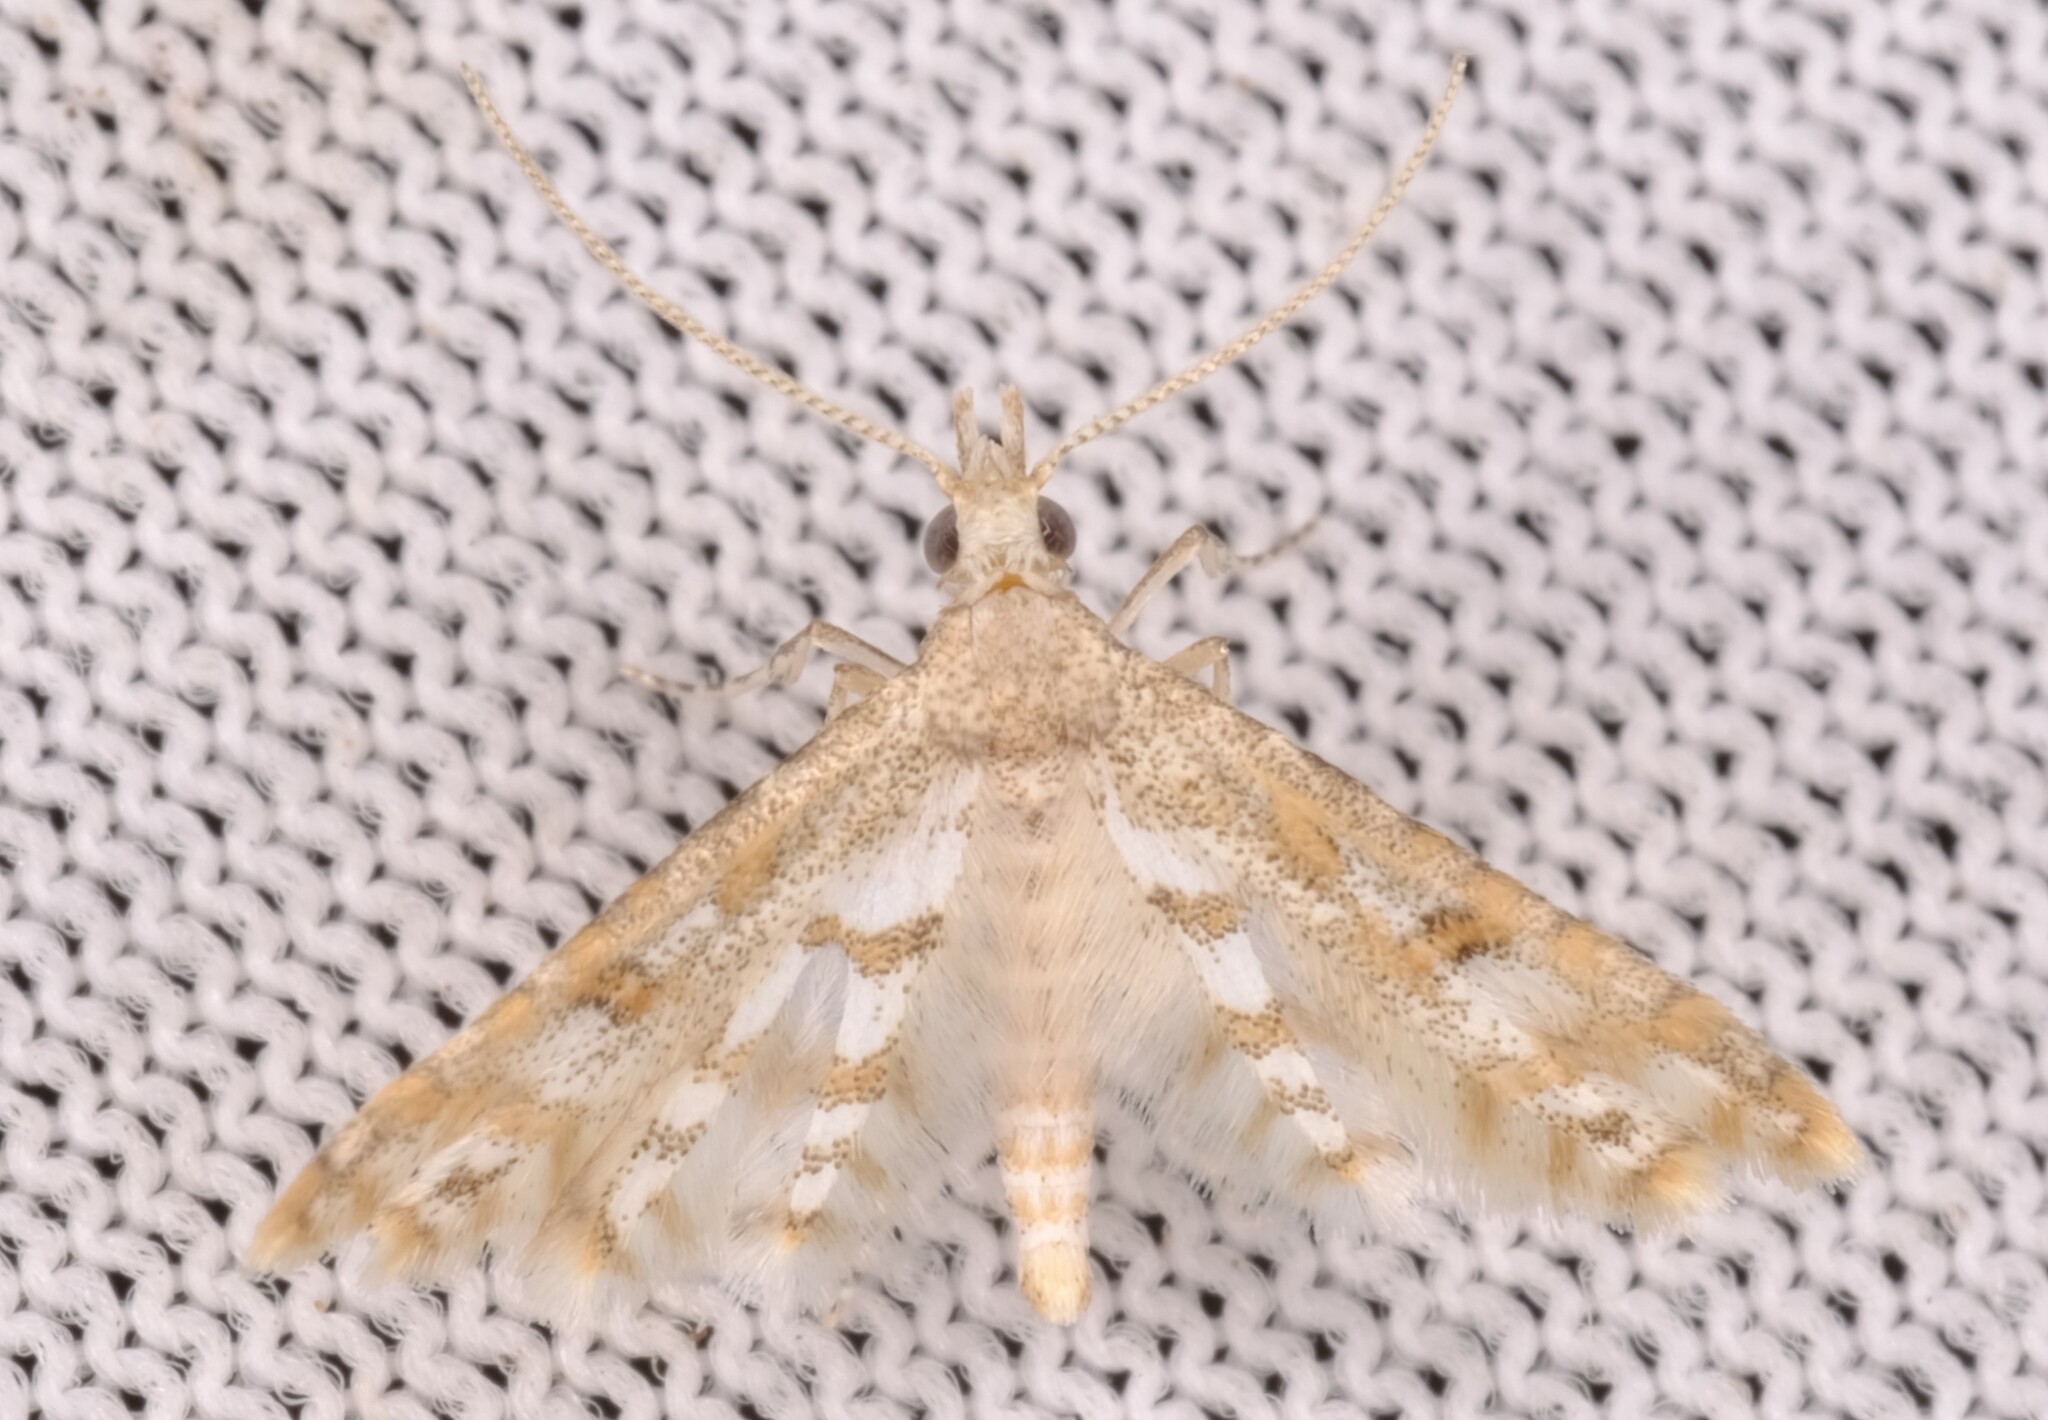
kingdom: Animalia
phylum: Arthropoda
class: Insecta
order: Lepidoptera
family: Alucitidae
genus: Cenoloba
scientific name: Cenoloba obliteralis
